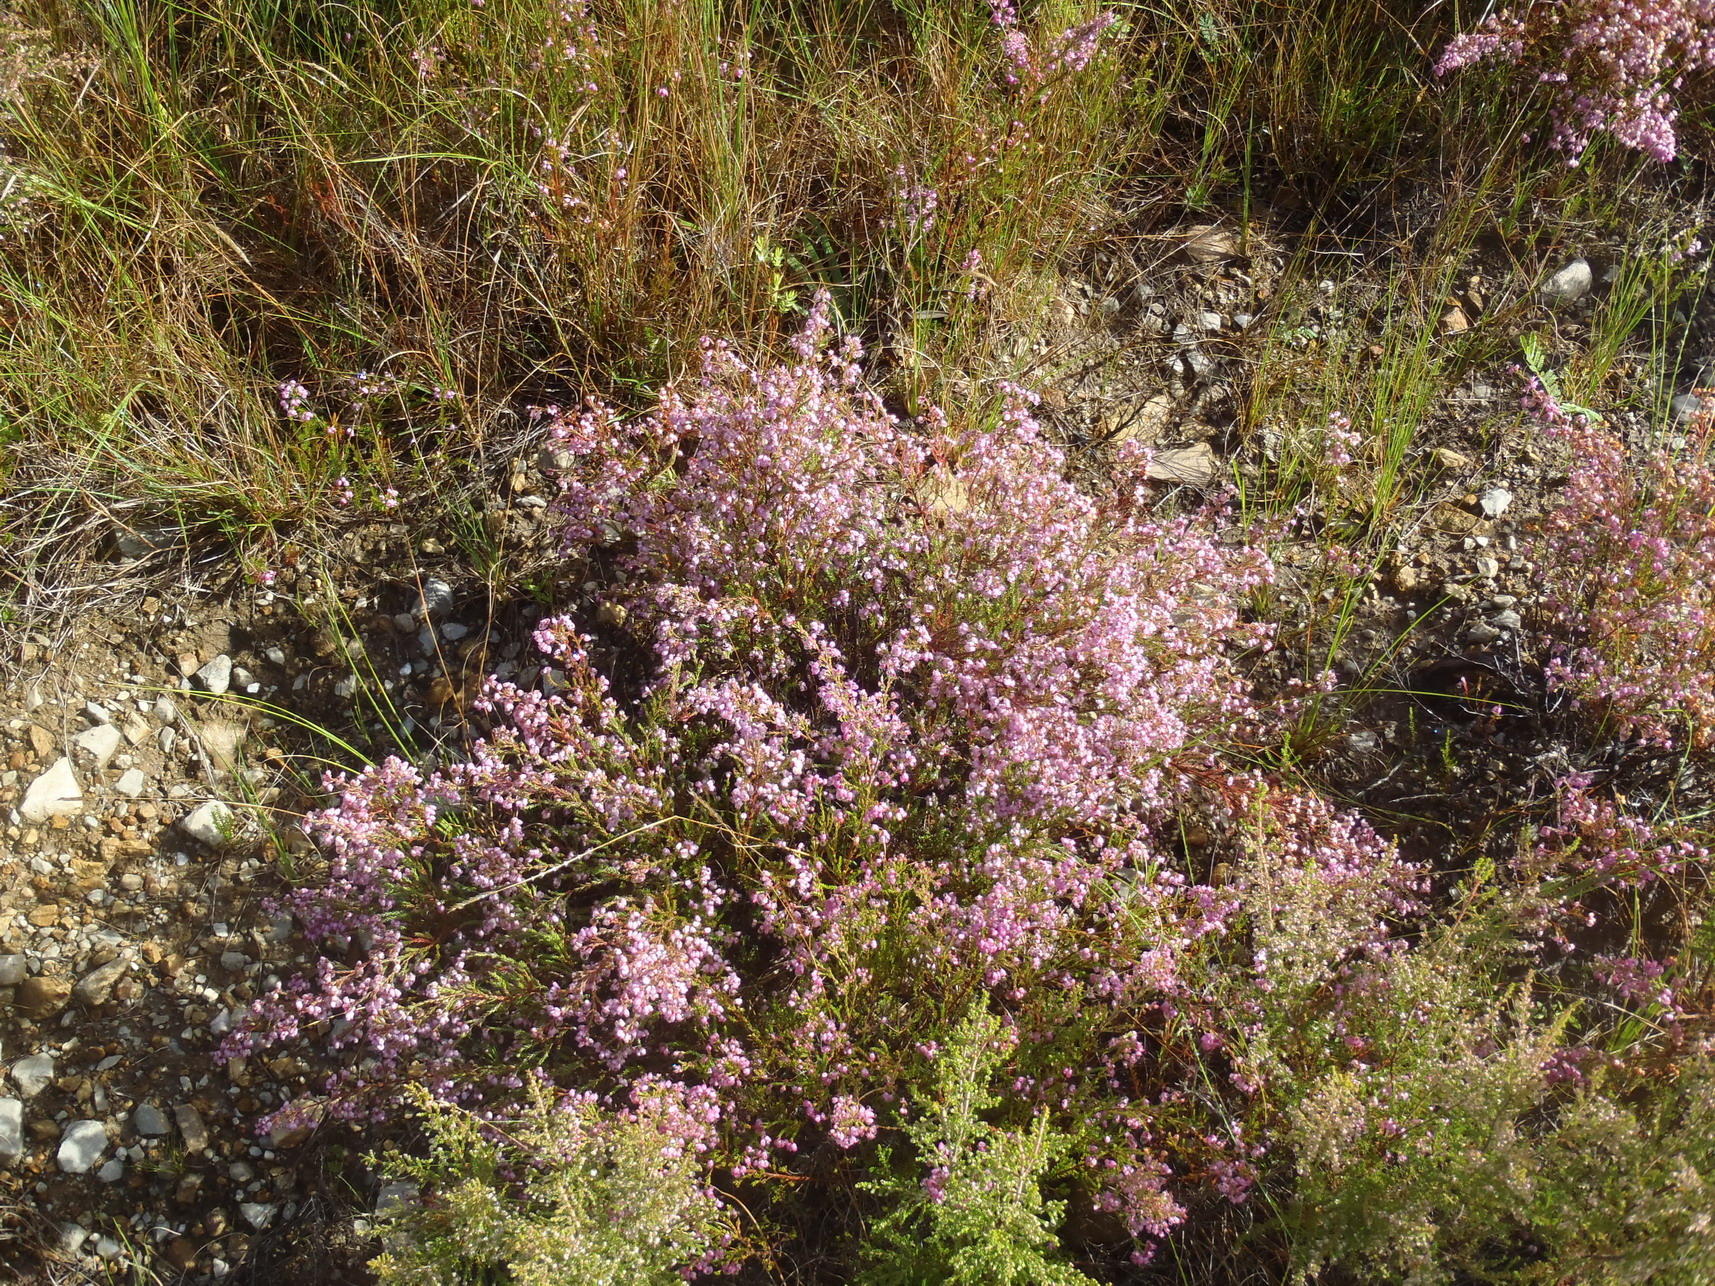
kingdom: Plantae
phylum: Tracheophyta
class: Magnoliopsida
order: Ericales
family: Ericaceae
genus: Erica
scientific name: Erica gracilis
